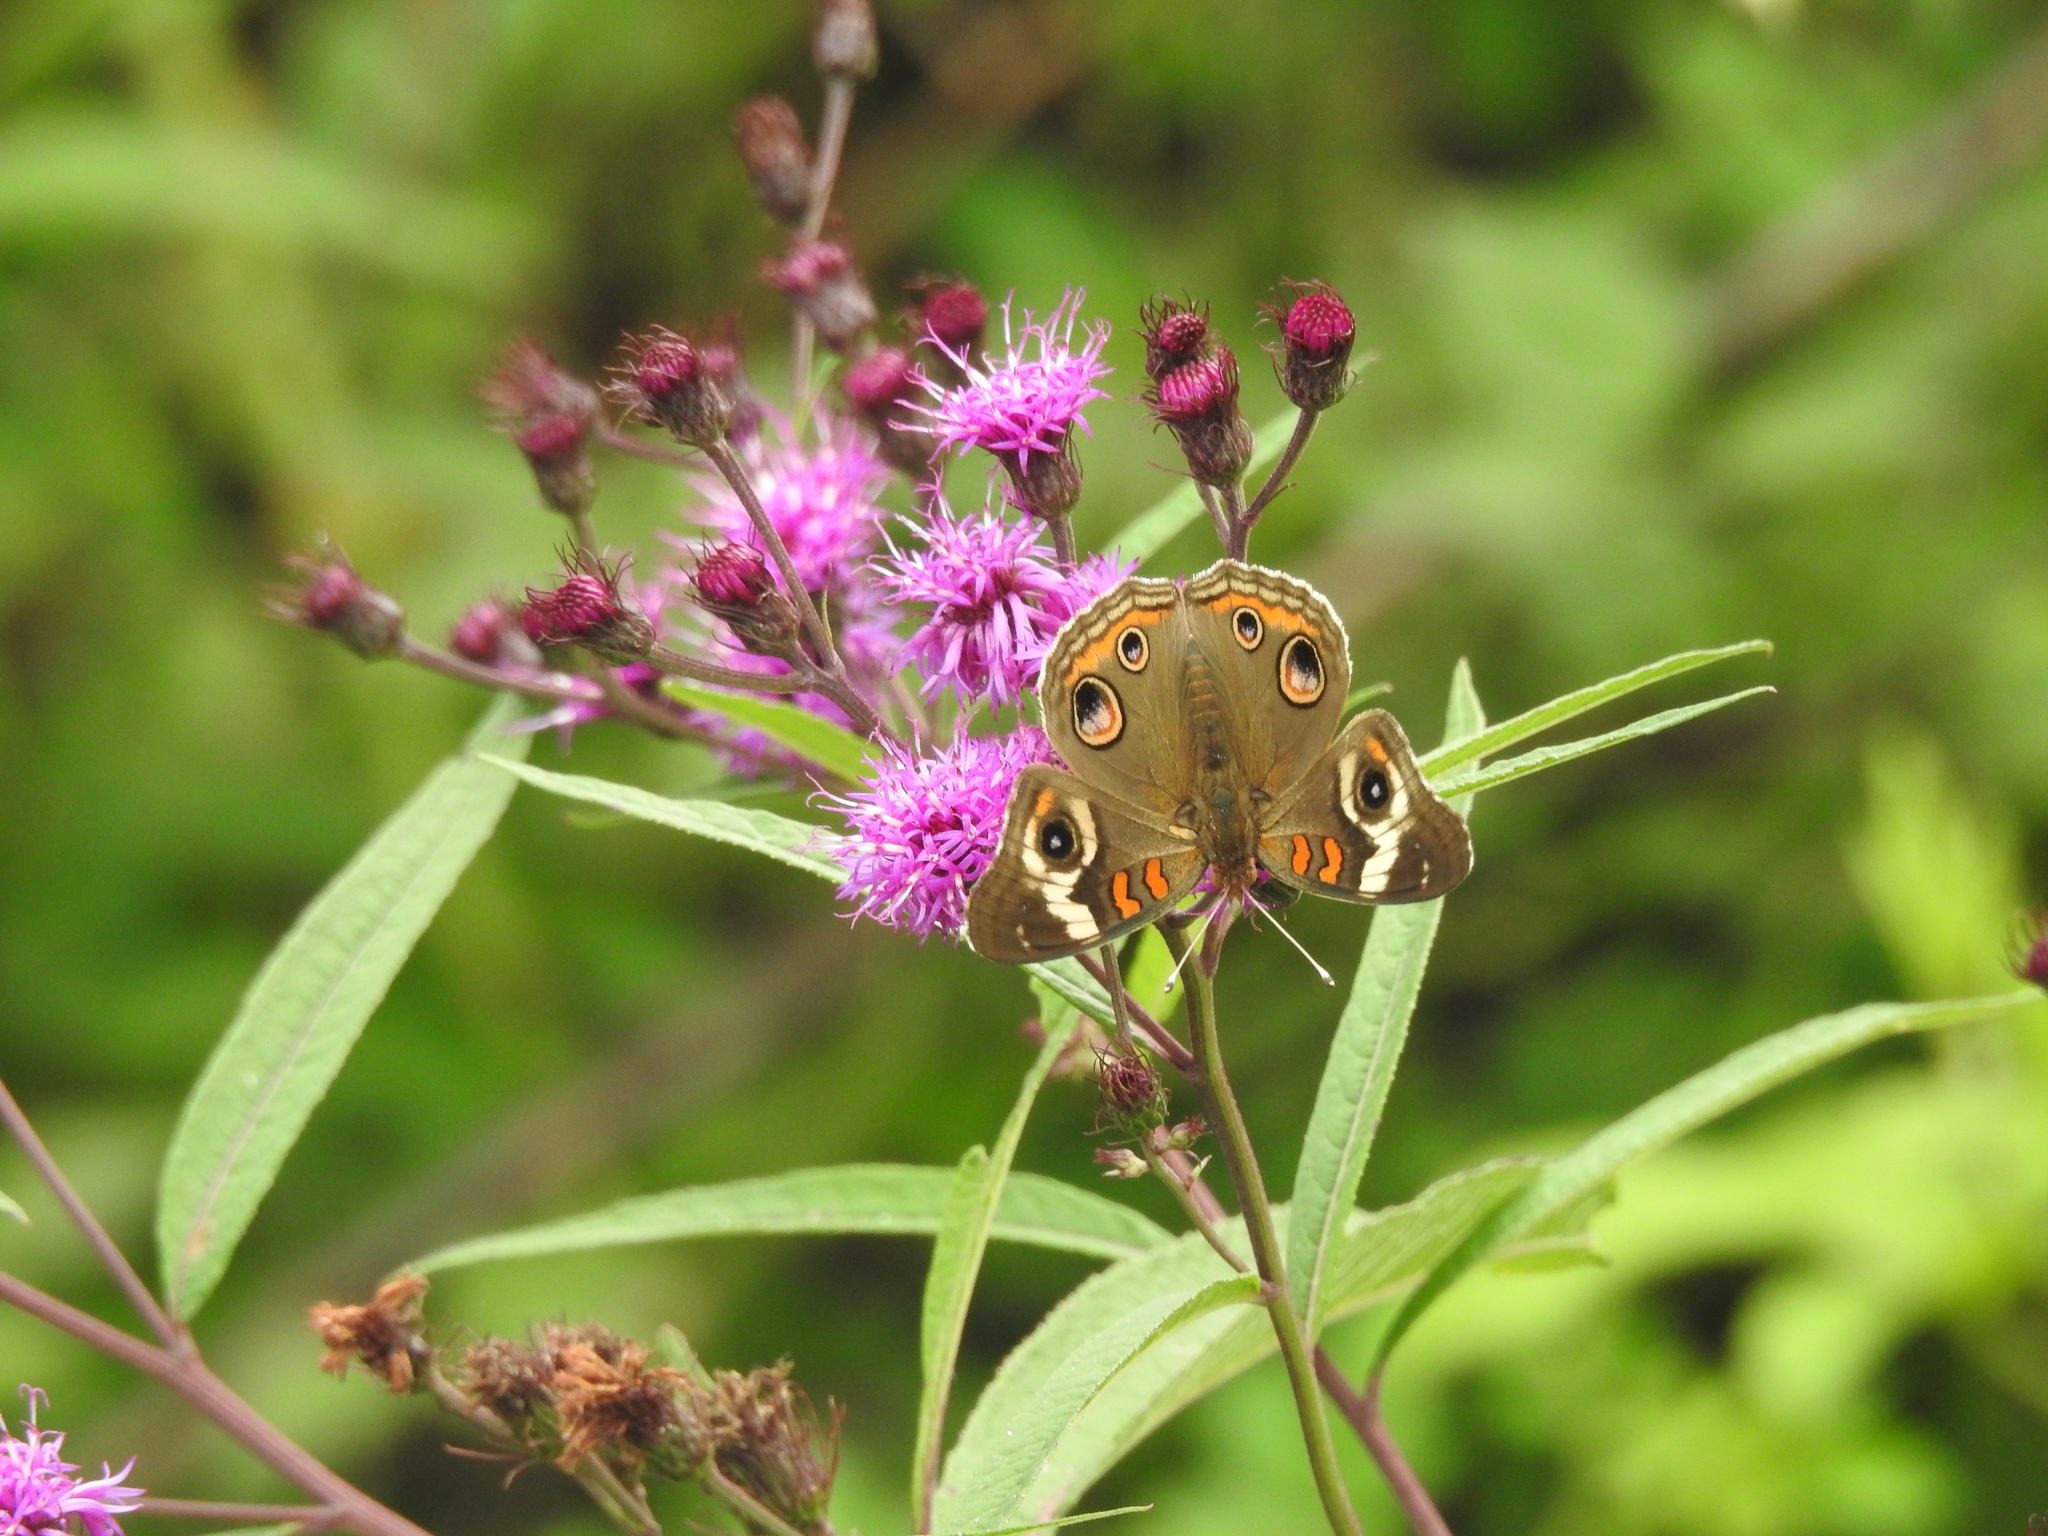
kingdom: Animalia
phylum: Arthropoda
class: Insecta
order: Lepidoptera
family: Nymphalidae
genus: Junonia
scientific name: Junonia coenia
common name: Common buckeye
